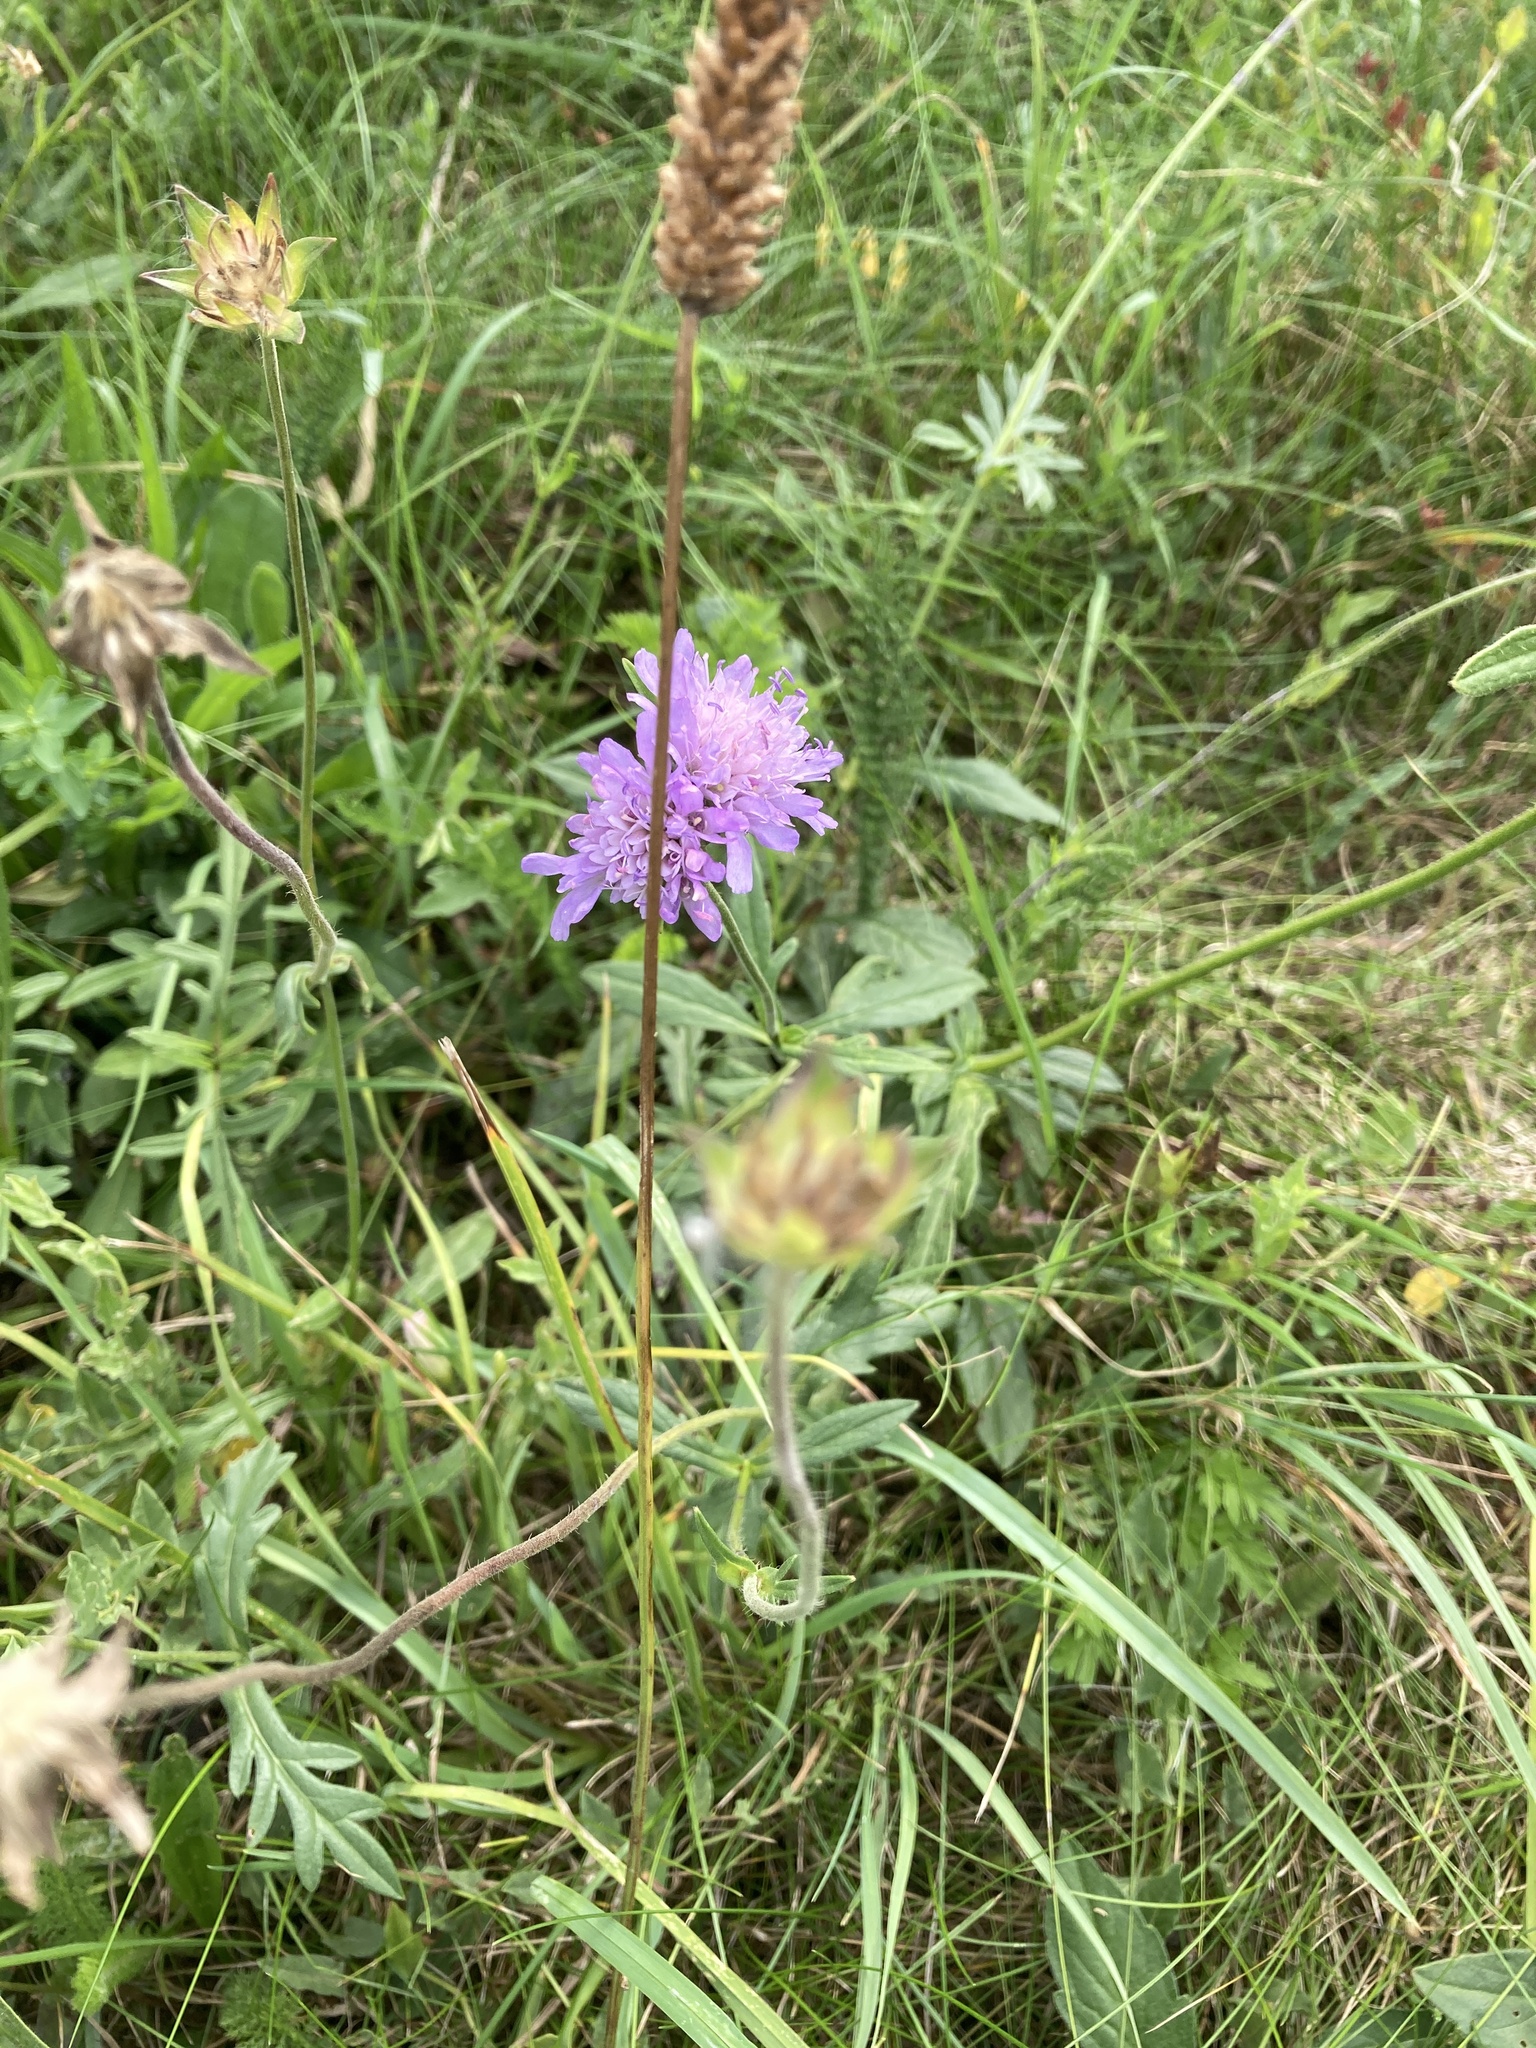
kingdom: Plantae
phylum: Tracheophyta
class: Magnoliopsida
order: Dipsacales
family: Caprifoliaceae
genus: Knautia
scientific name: Knautia arvensis
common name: Field scabiosa
